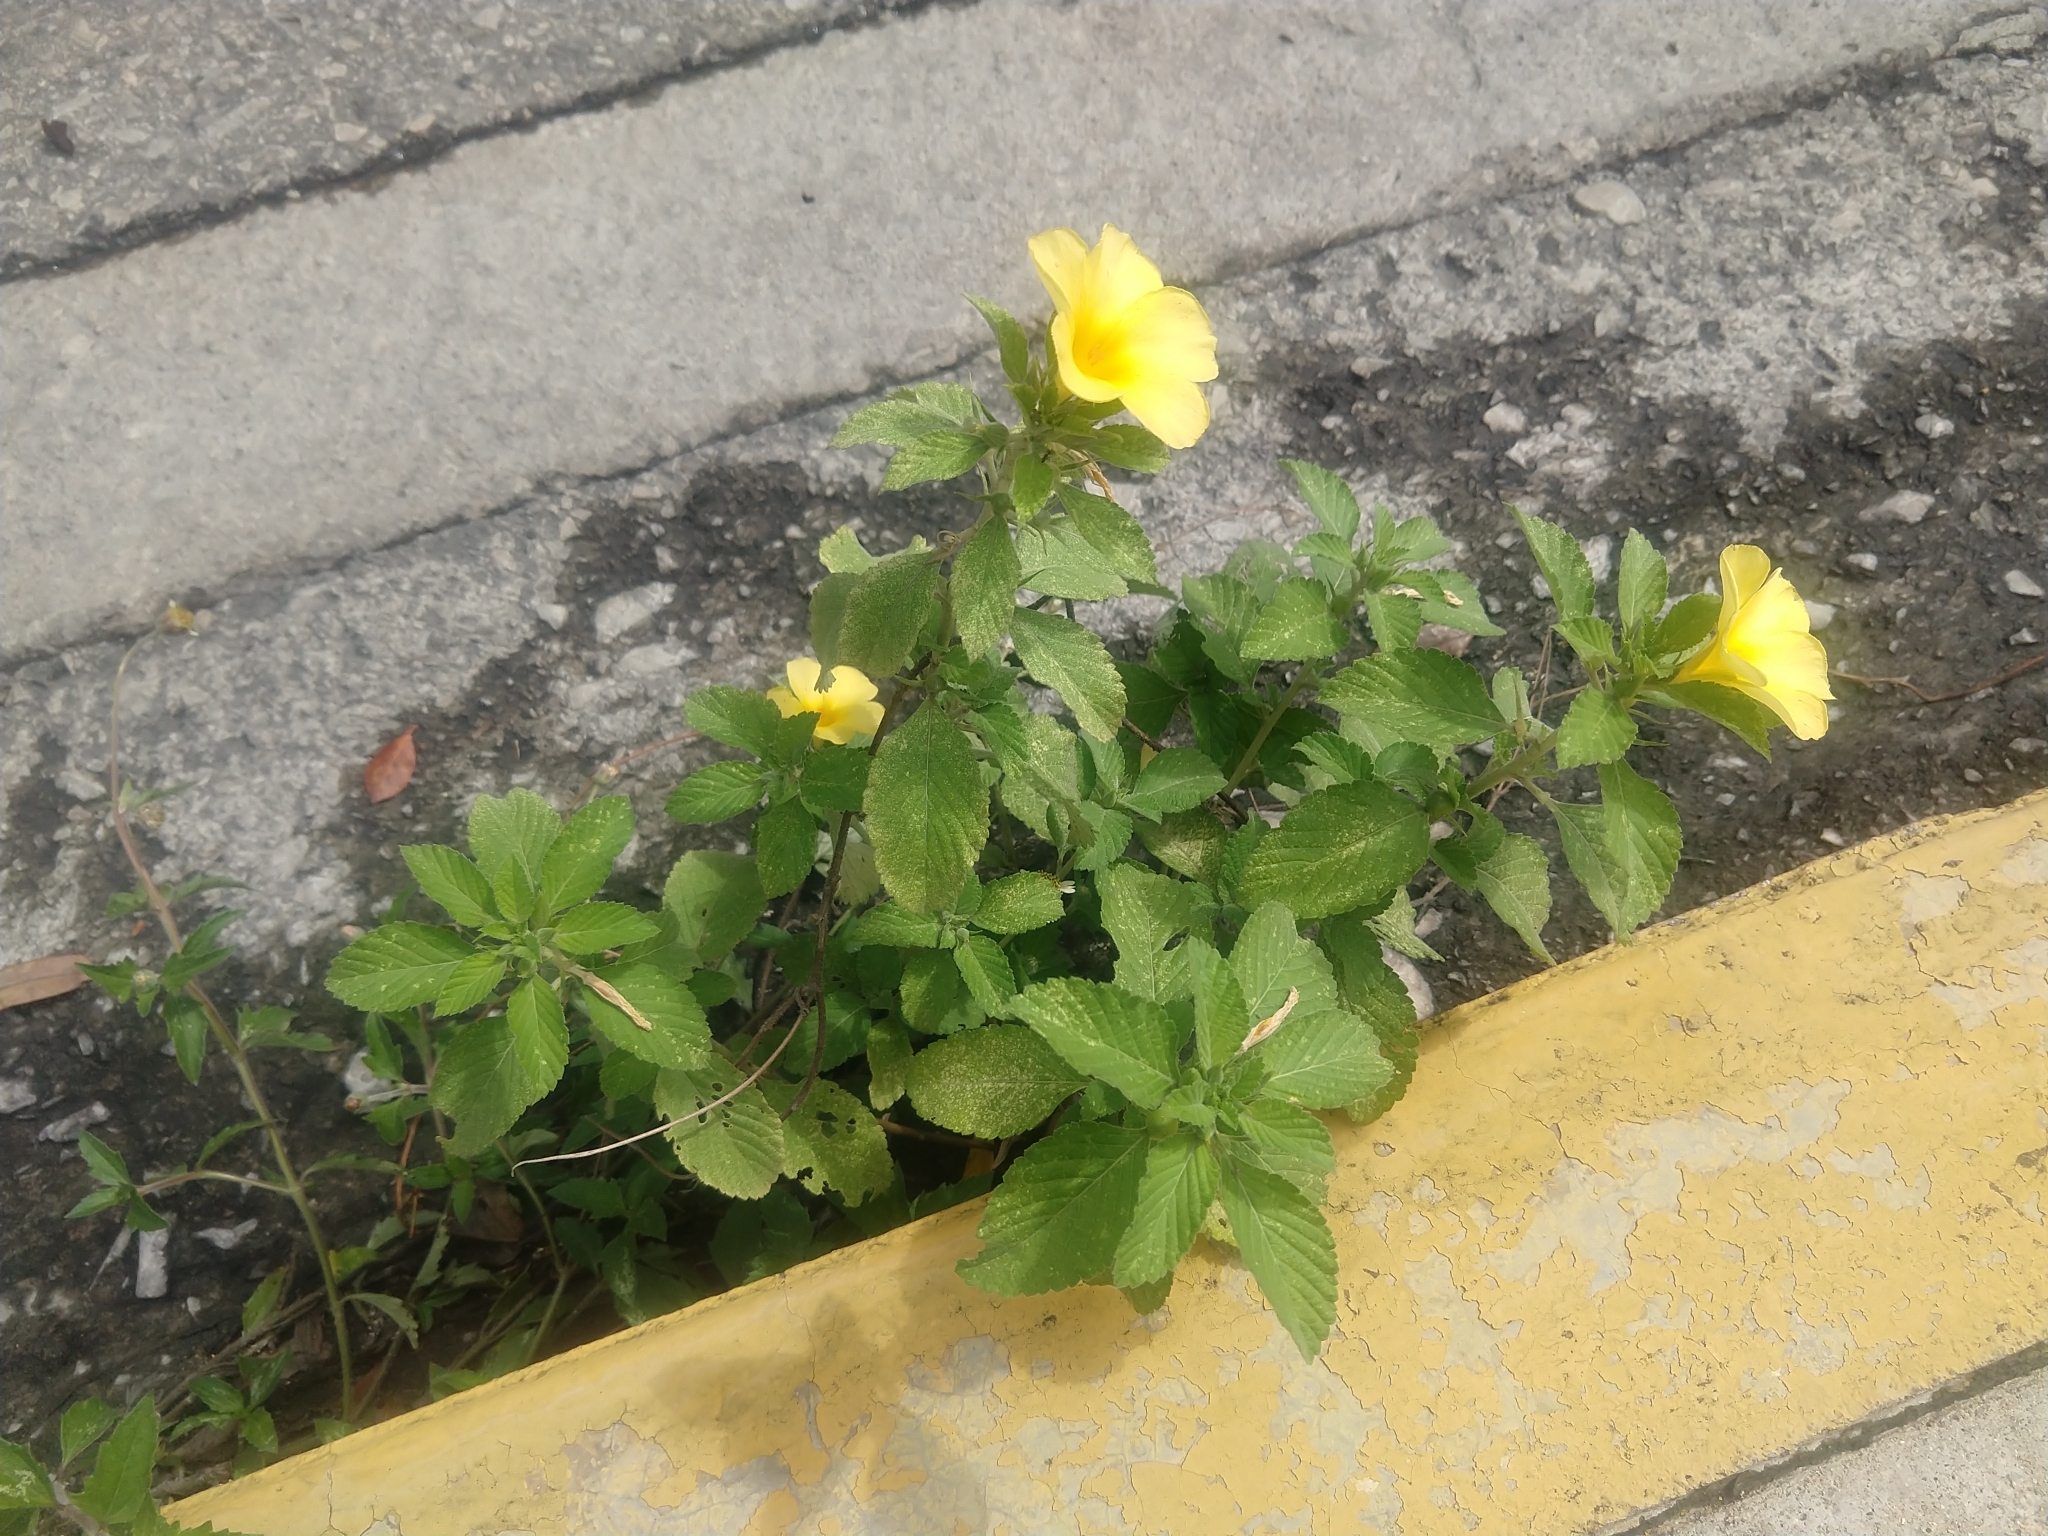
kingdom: Plantae
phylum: Tracheophyta
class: Magnoliopsida
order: Malpighiales
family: Turneraceae
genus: Turnera
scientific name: Turnera ulmifolia
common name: Ramgoat dashalong
